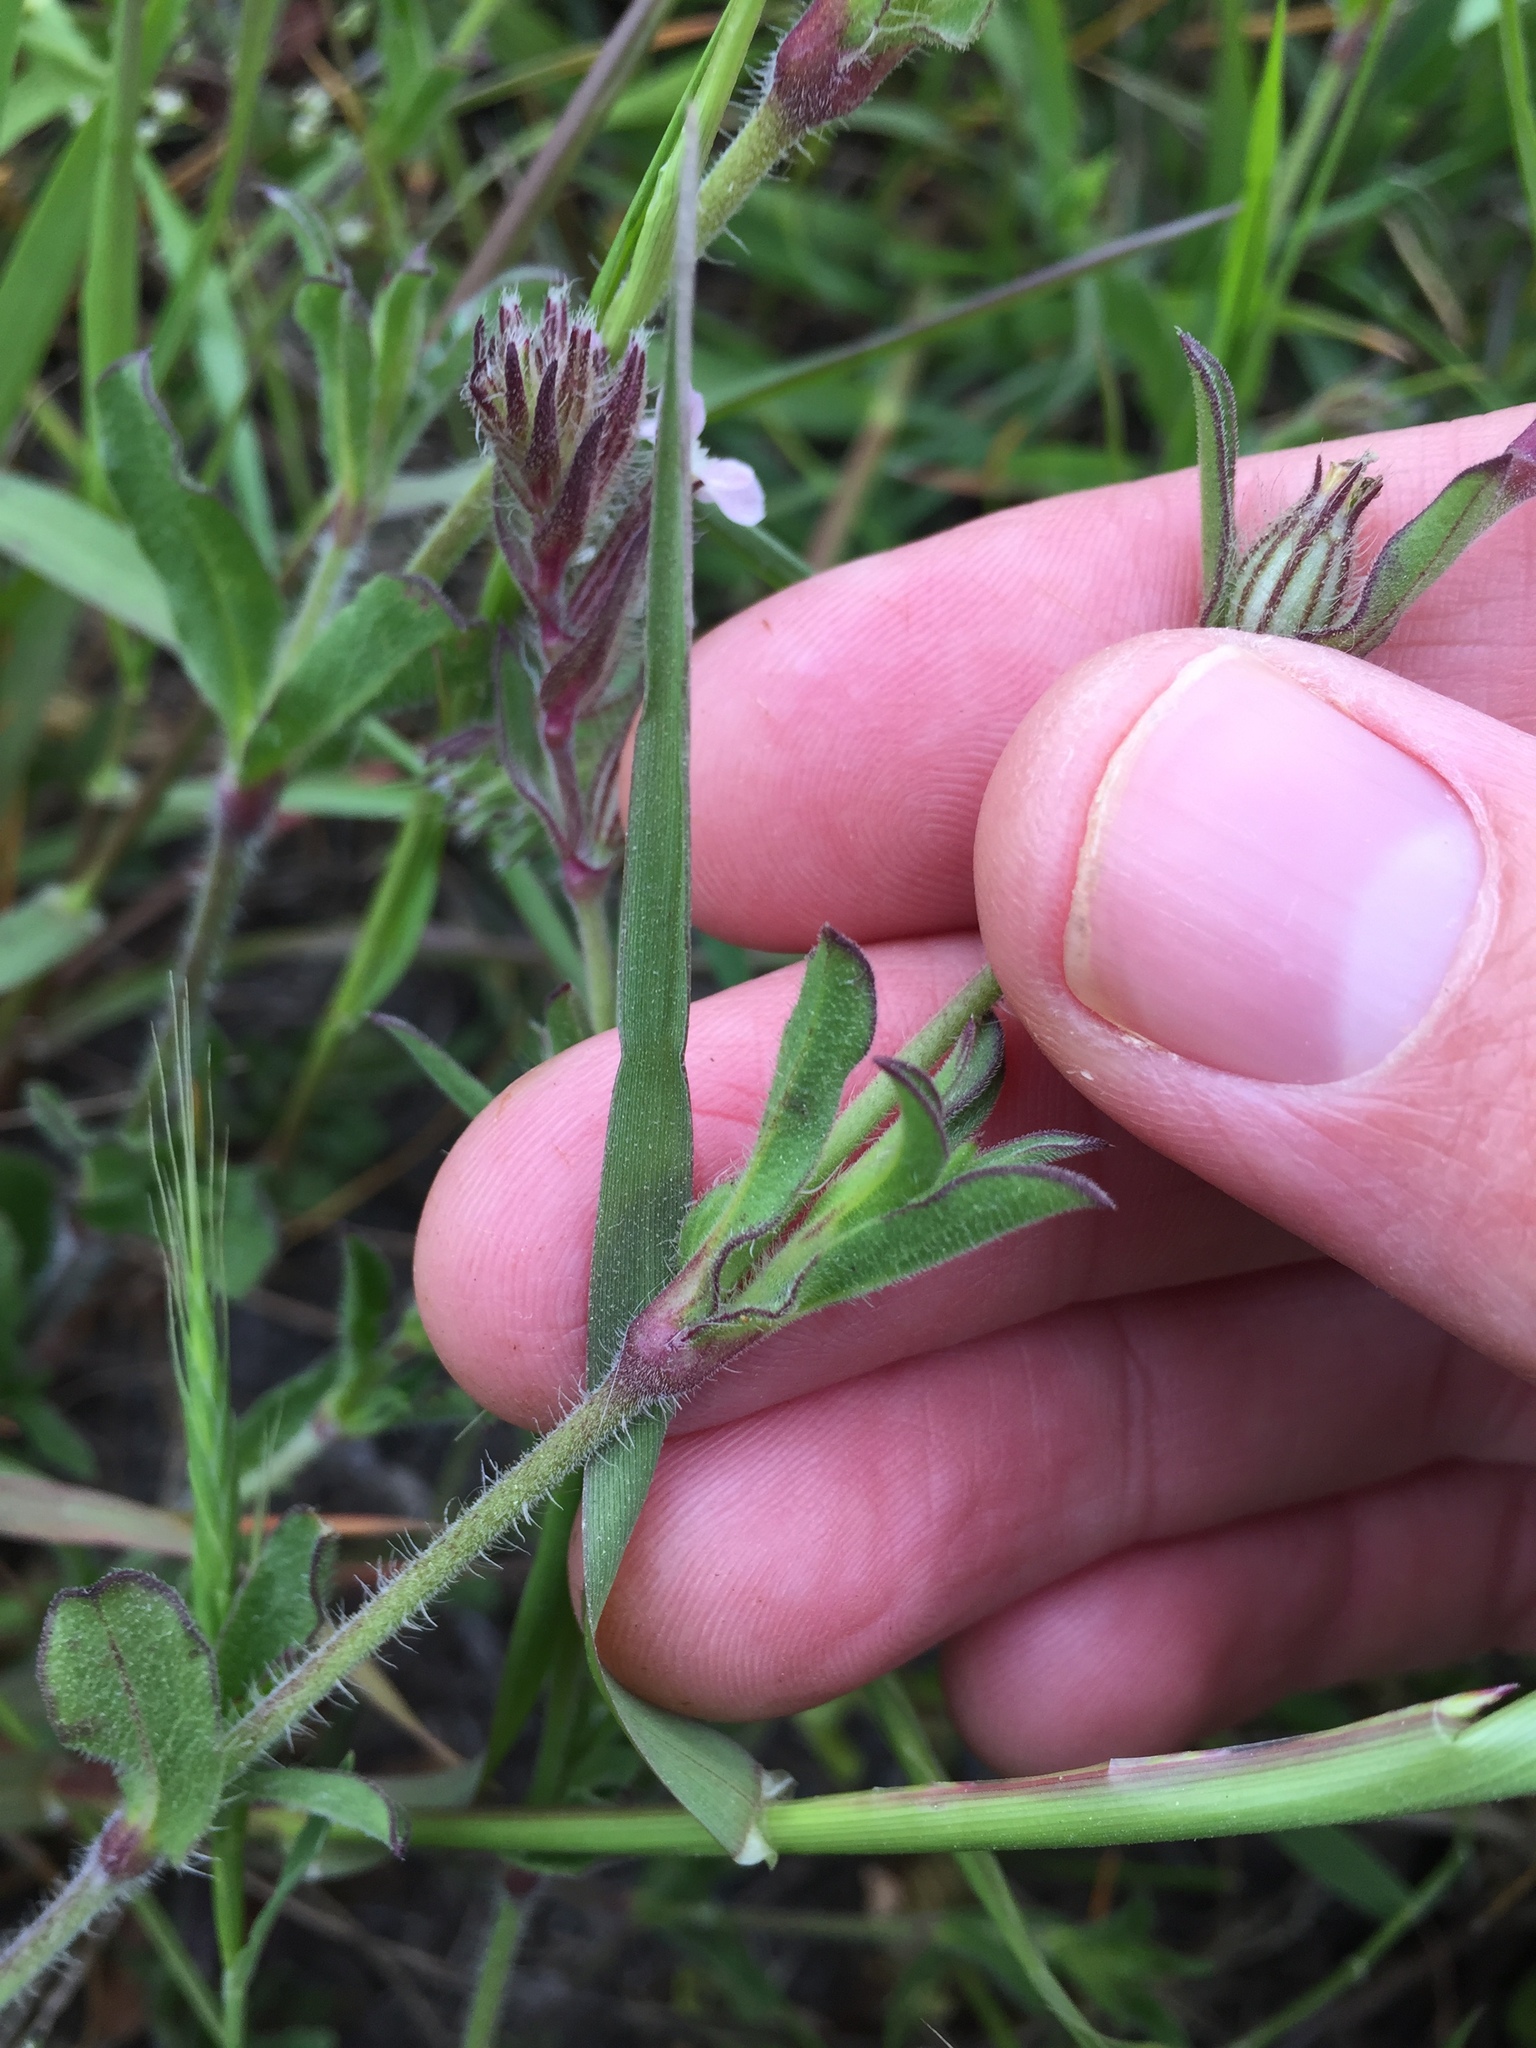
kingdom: Plantae
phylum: Tracheophyta
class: Magnoliopsida
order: Caryophyllales
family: Caryophyllaceae
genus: Silene
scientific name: Silene gallica
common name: Small-flowered catchfly
